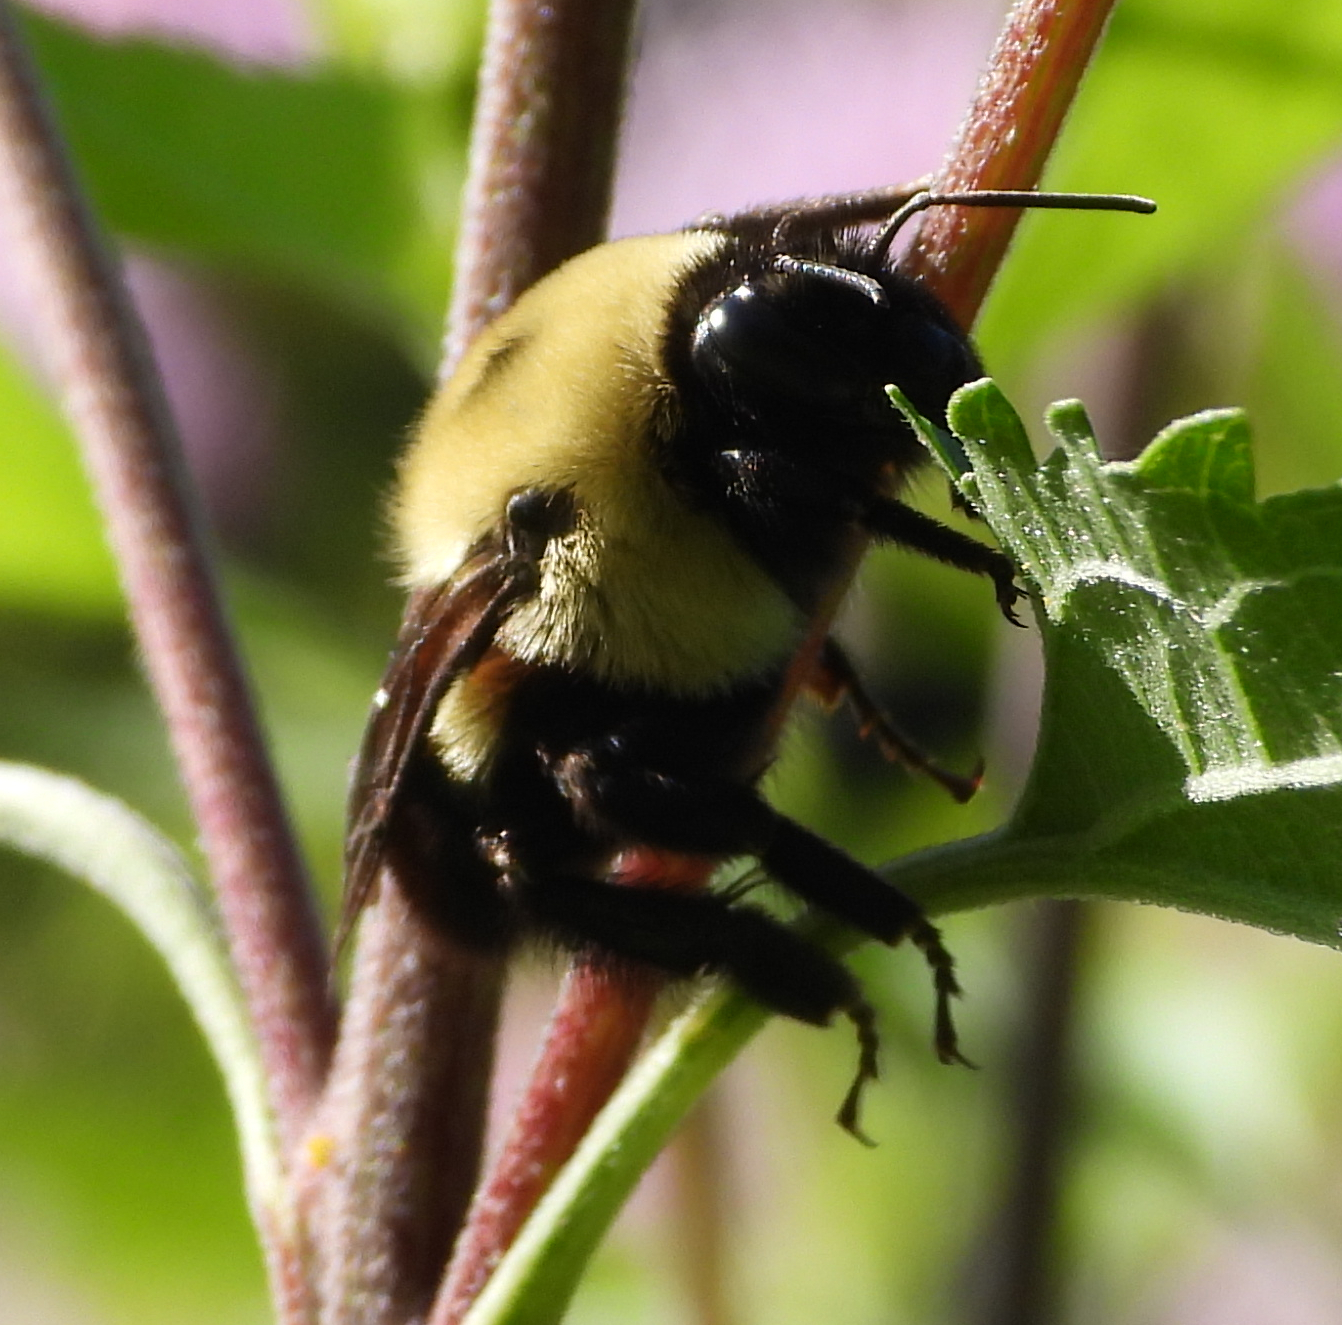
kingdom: Animalia
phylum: Arthropoda
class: Insecta
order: Hymenoptera
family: Apidae
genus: Bombus
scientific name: Bombus griseocollis
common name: Brown-belted bumble bee
